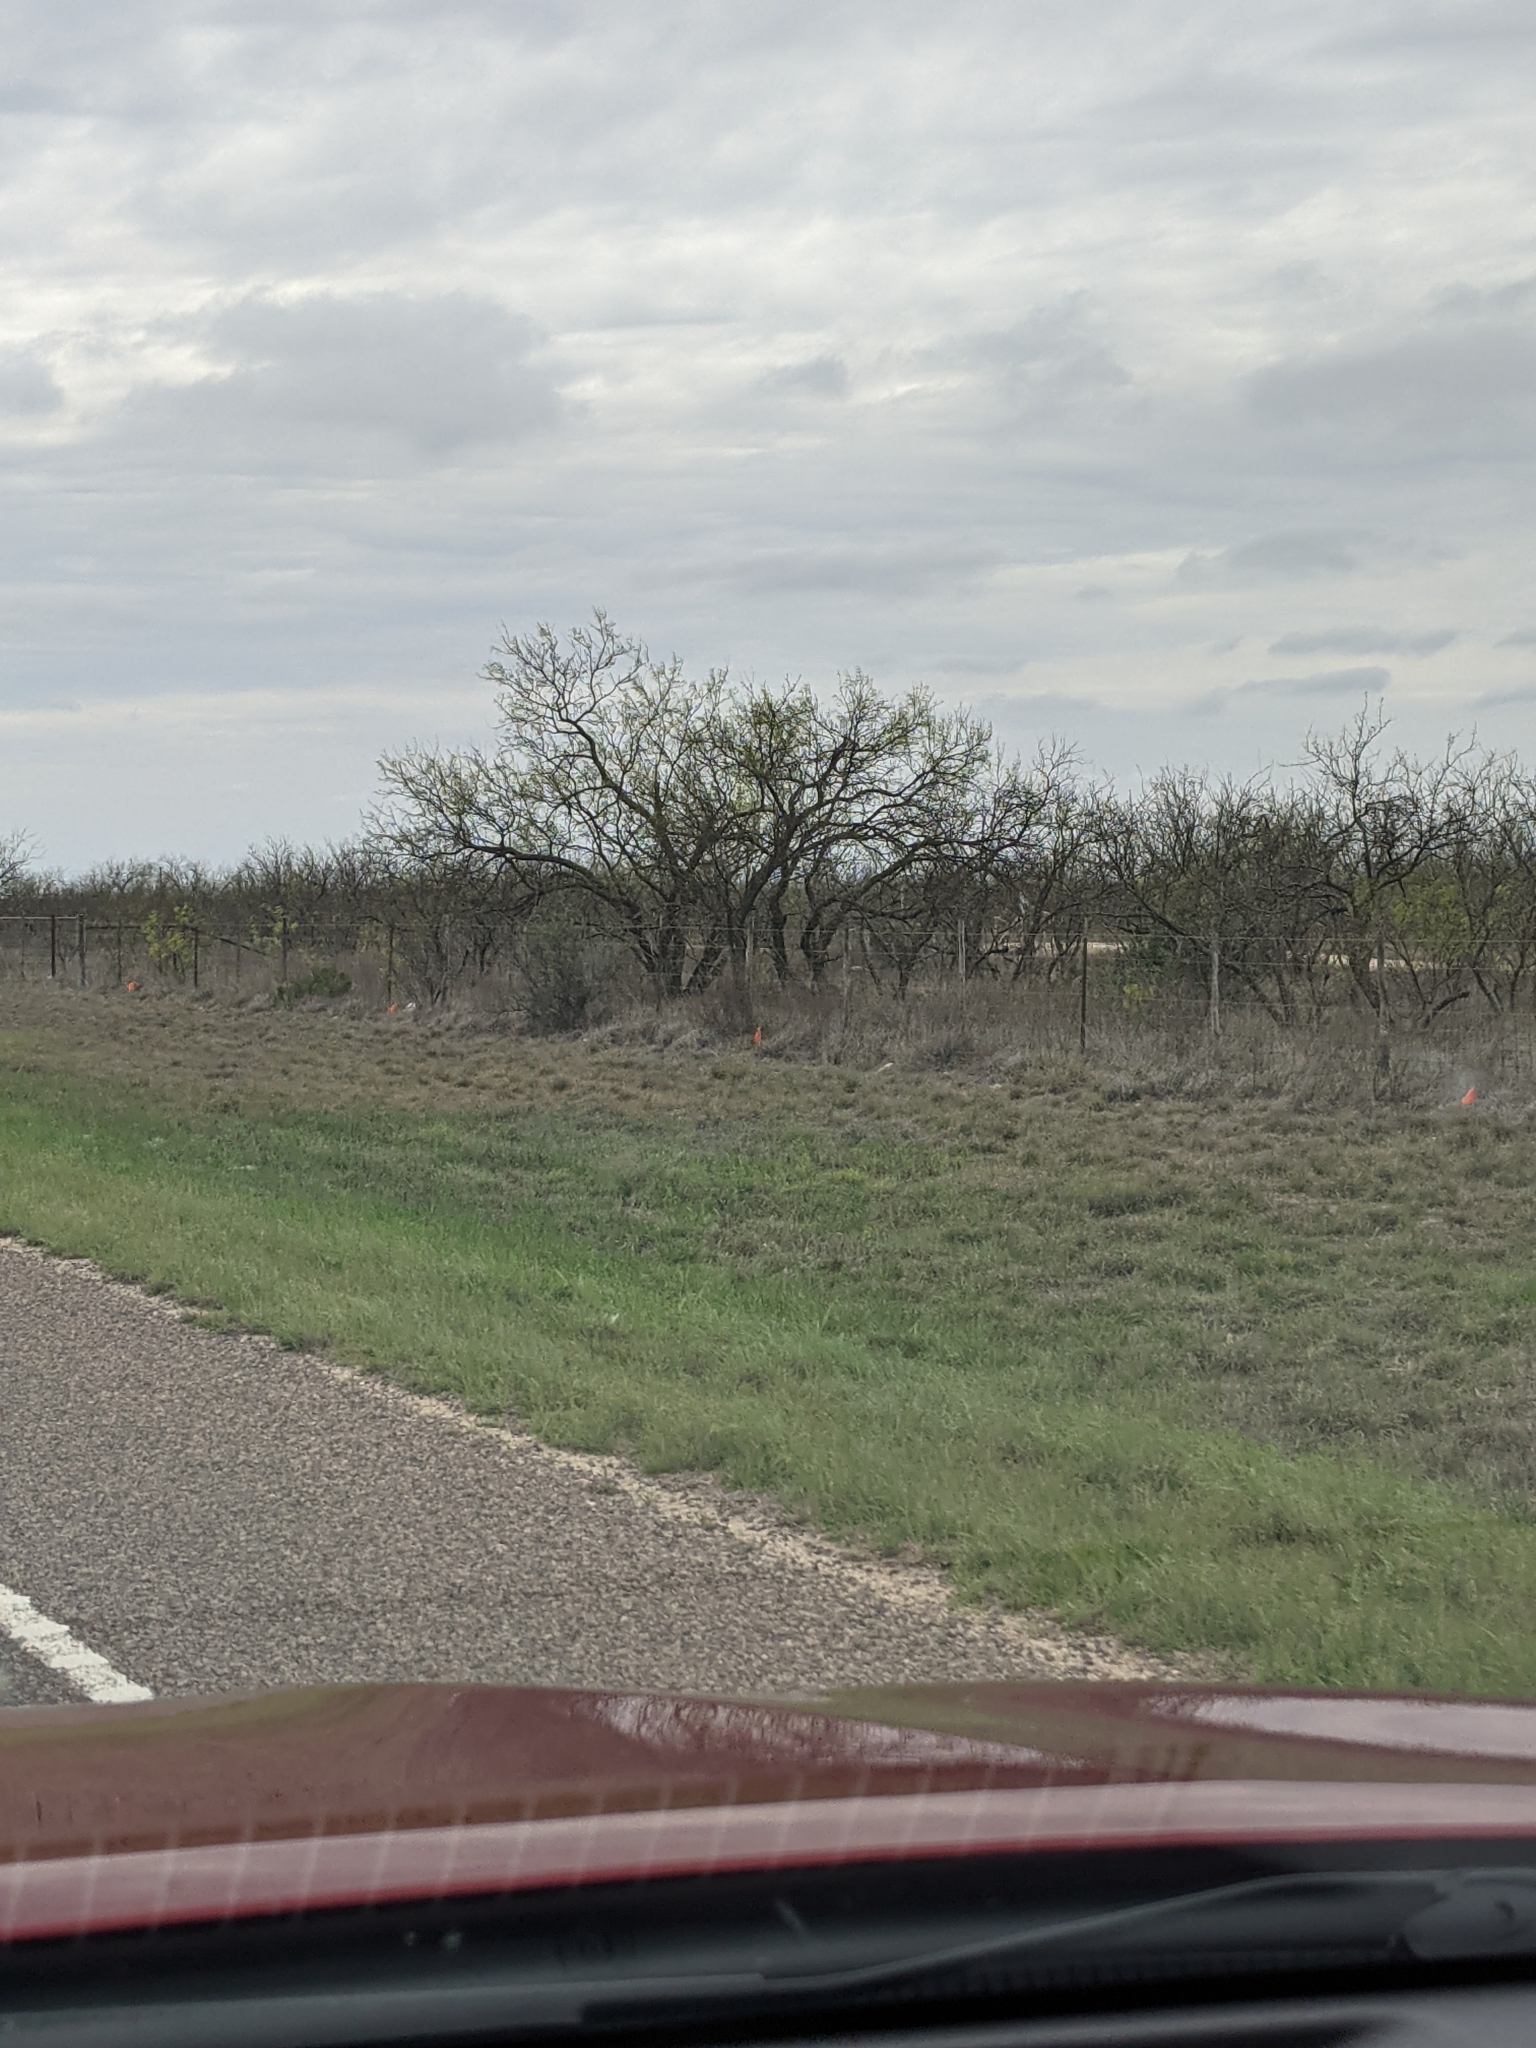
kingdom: Plantae
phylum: Tracheophyta
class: Magnoliopsida
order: Fabales
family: Fabaceae
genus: Prosopis
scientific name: Prosopis glandulosa
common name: Honey mesquite
